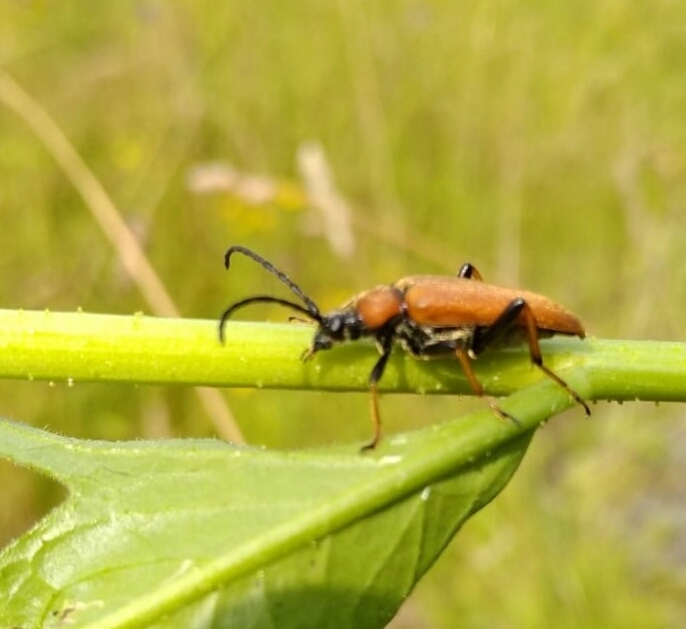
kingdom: Animalia
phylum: Arthropoda
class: Insecta
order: Coleoptera
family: Cerambycidae
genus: Stictoleptura
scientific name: Stictoleptura rubra
